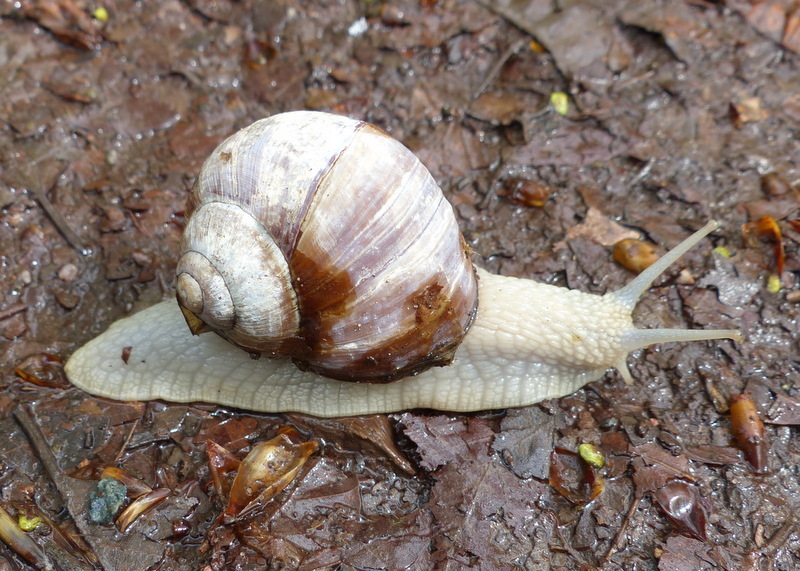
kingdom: Animalia
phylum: Mollusca
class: Gastropoda
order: Stylommatophora
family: Helicidae
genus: Helix
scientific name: Helix pomatia
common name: Roman snail
